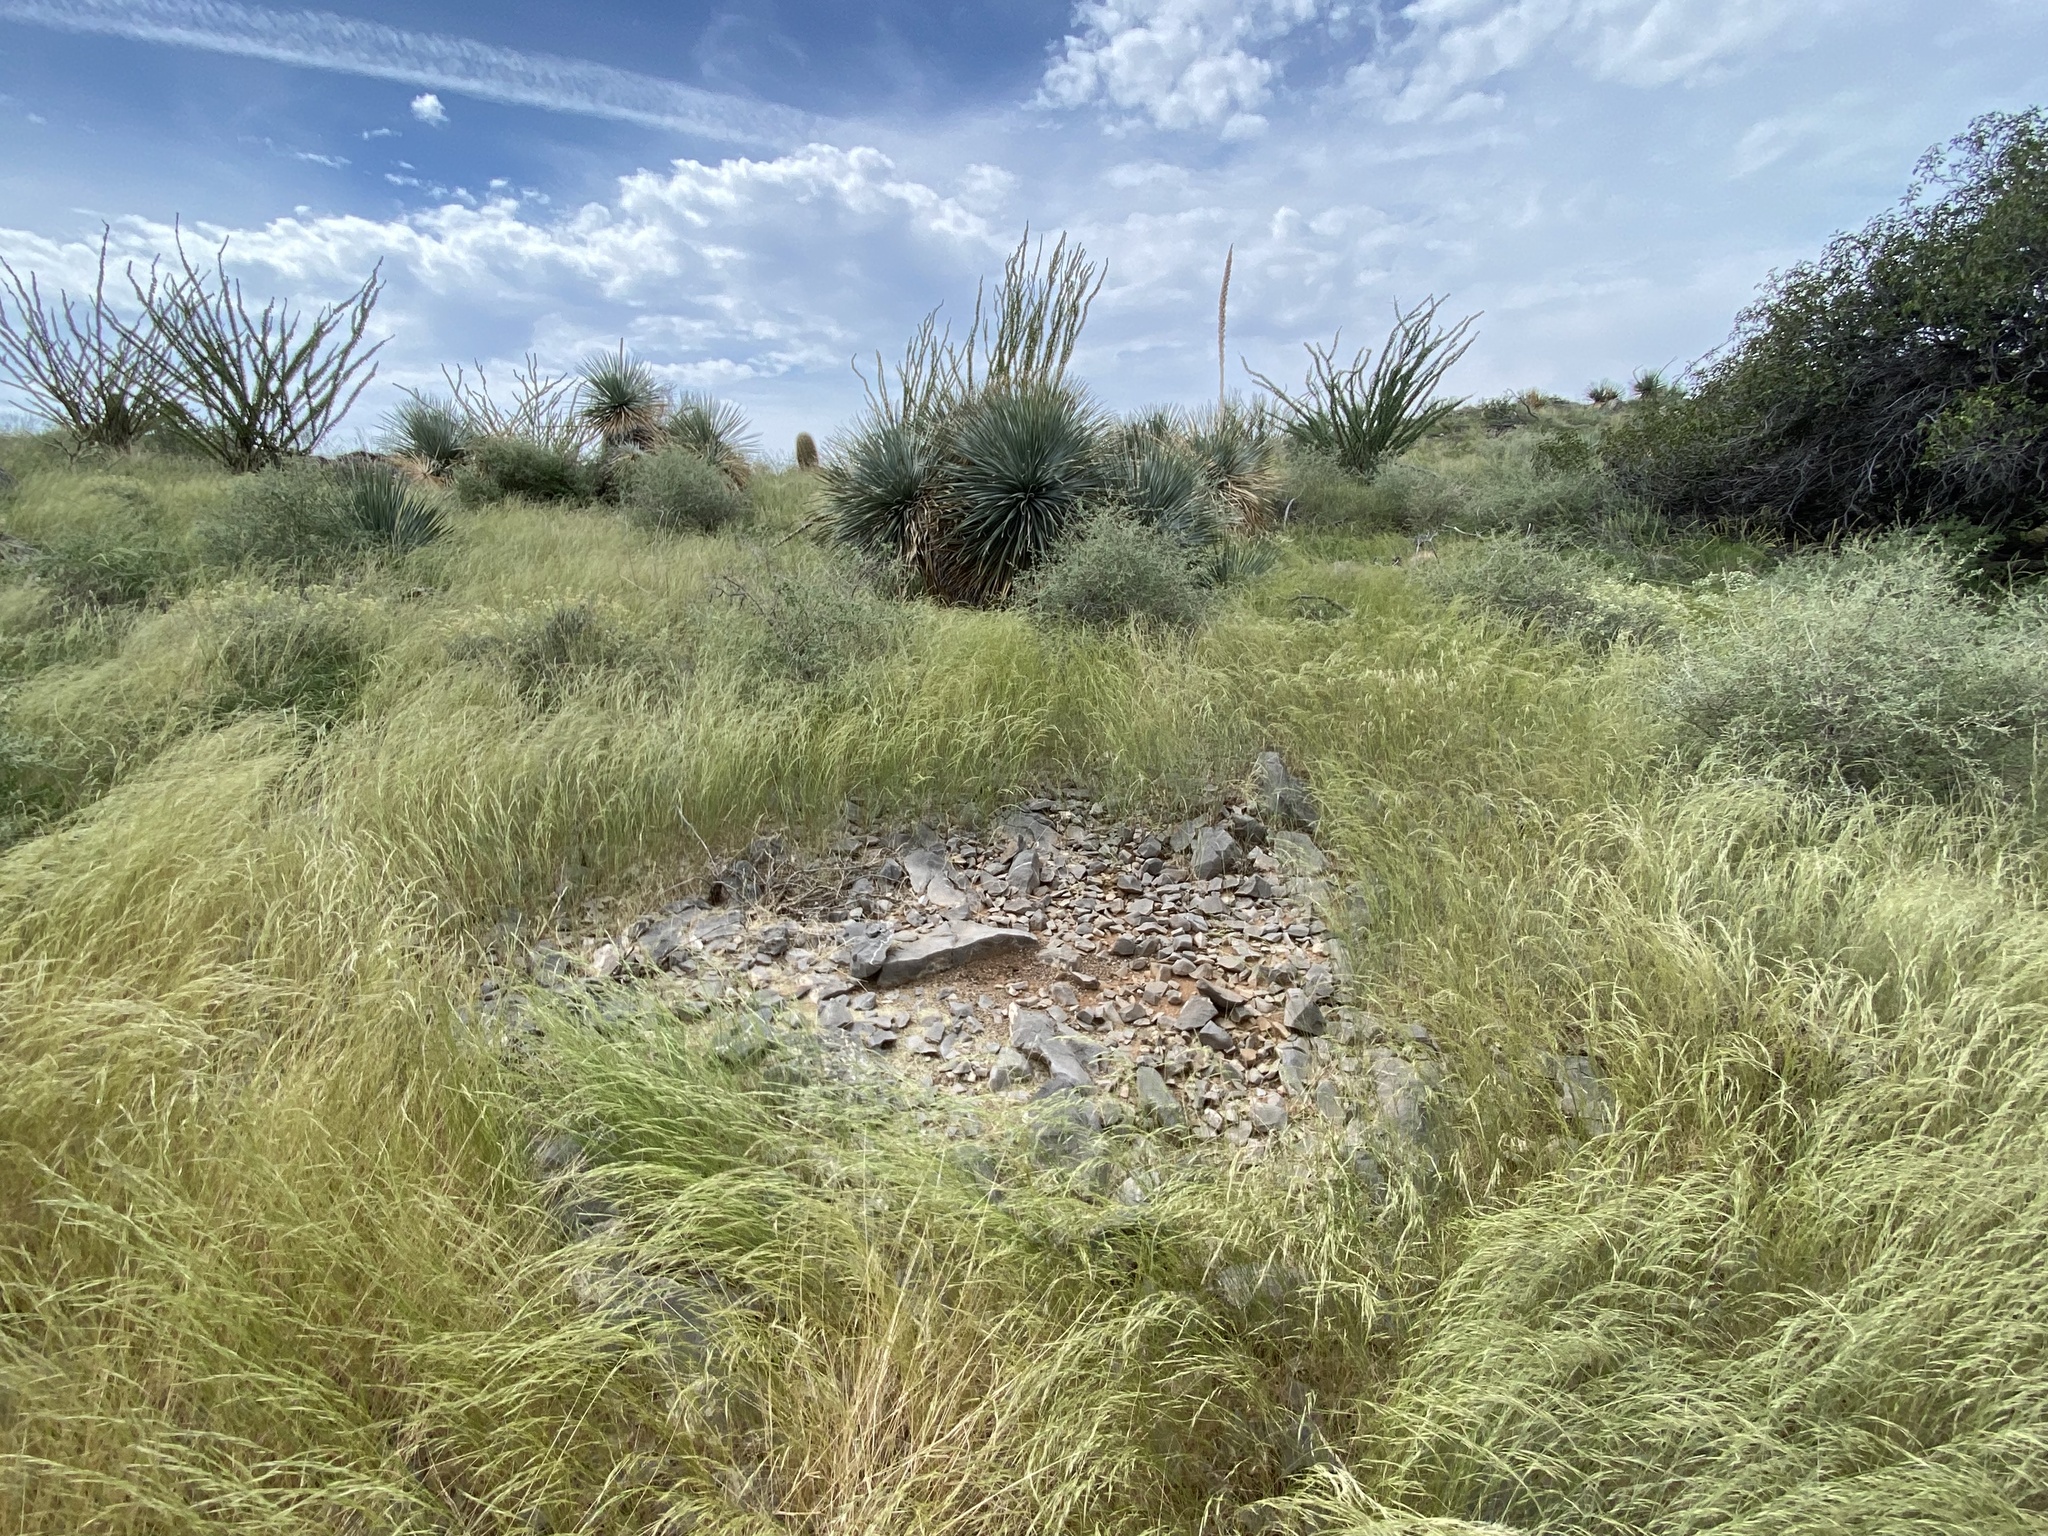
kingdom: Animalia
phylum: Arthropoda
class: Insecta
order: Hymenoptera
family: Formicidae
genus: Pogonomyrmex
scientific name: Pogonomyrmex rugosus
